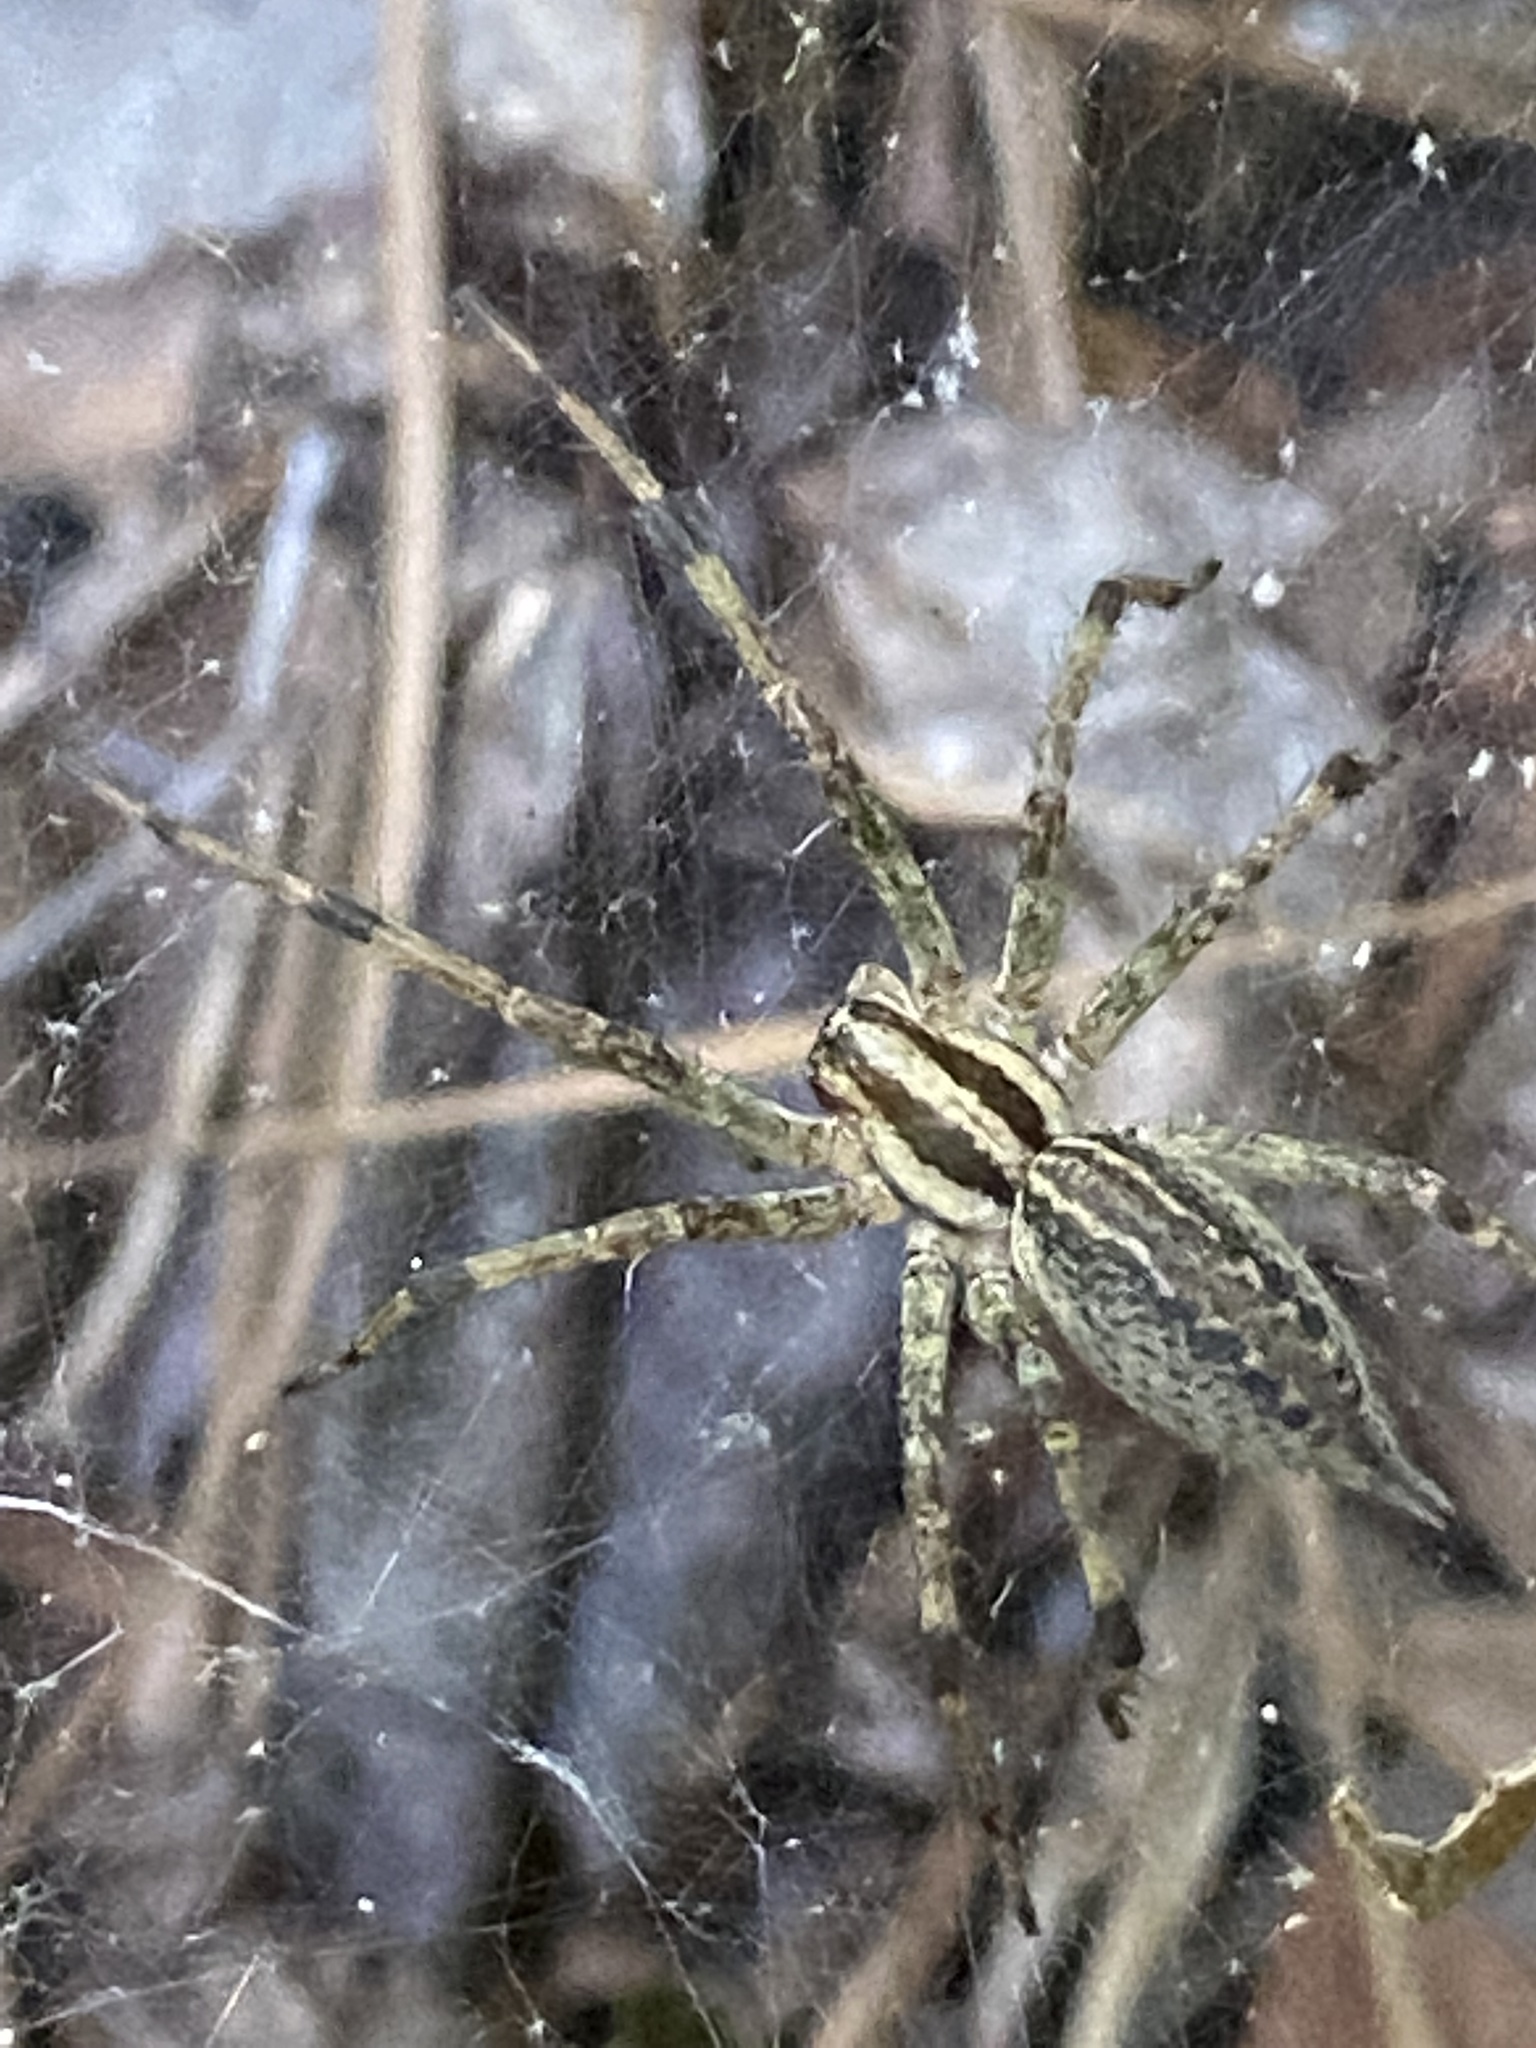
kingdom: Animalia
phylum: Arthropoda
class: Arachnida
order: Araneae
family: Agelenidae
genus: Agelenopsis
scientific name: Agelenopsis
